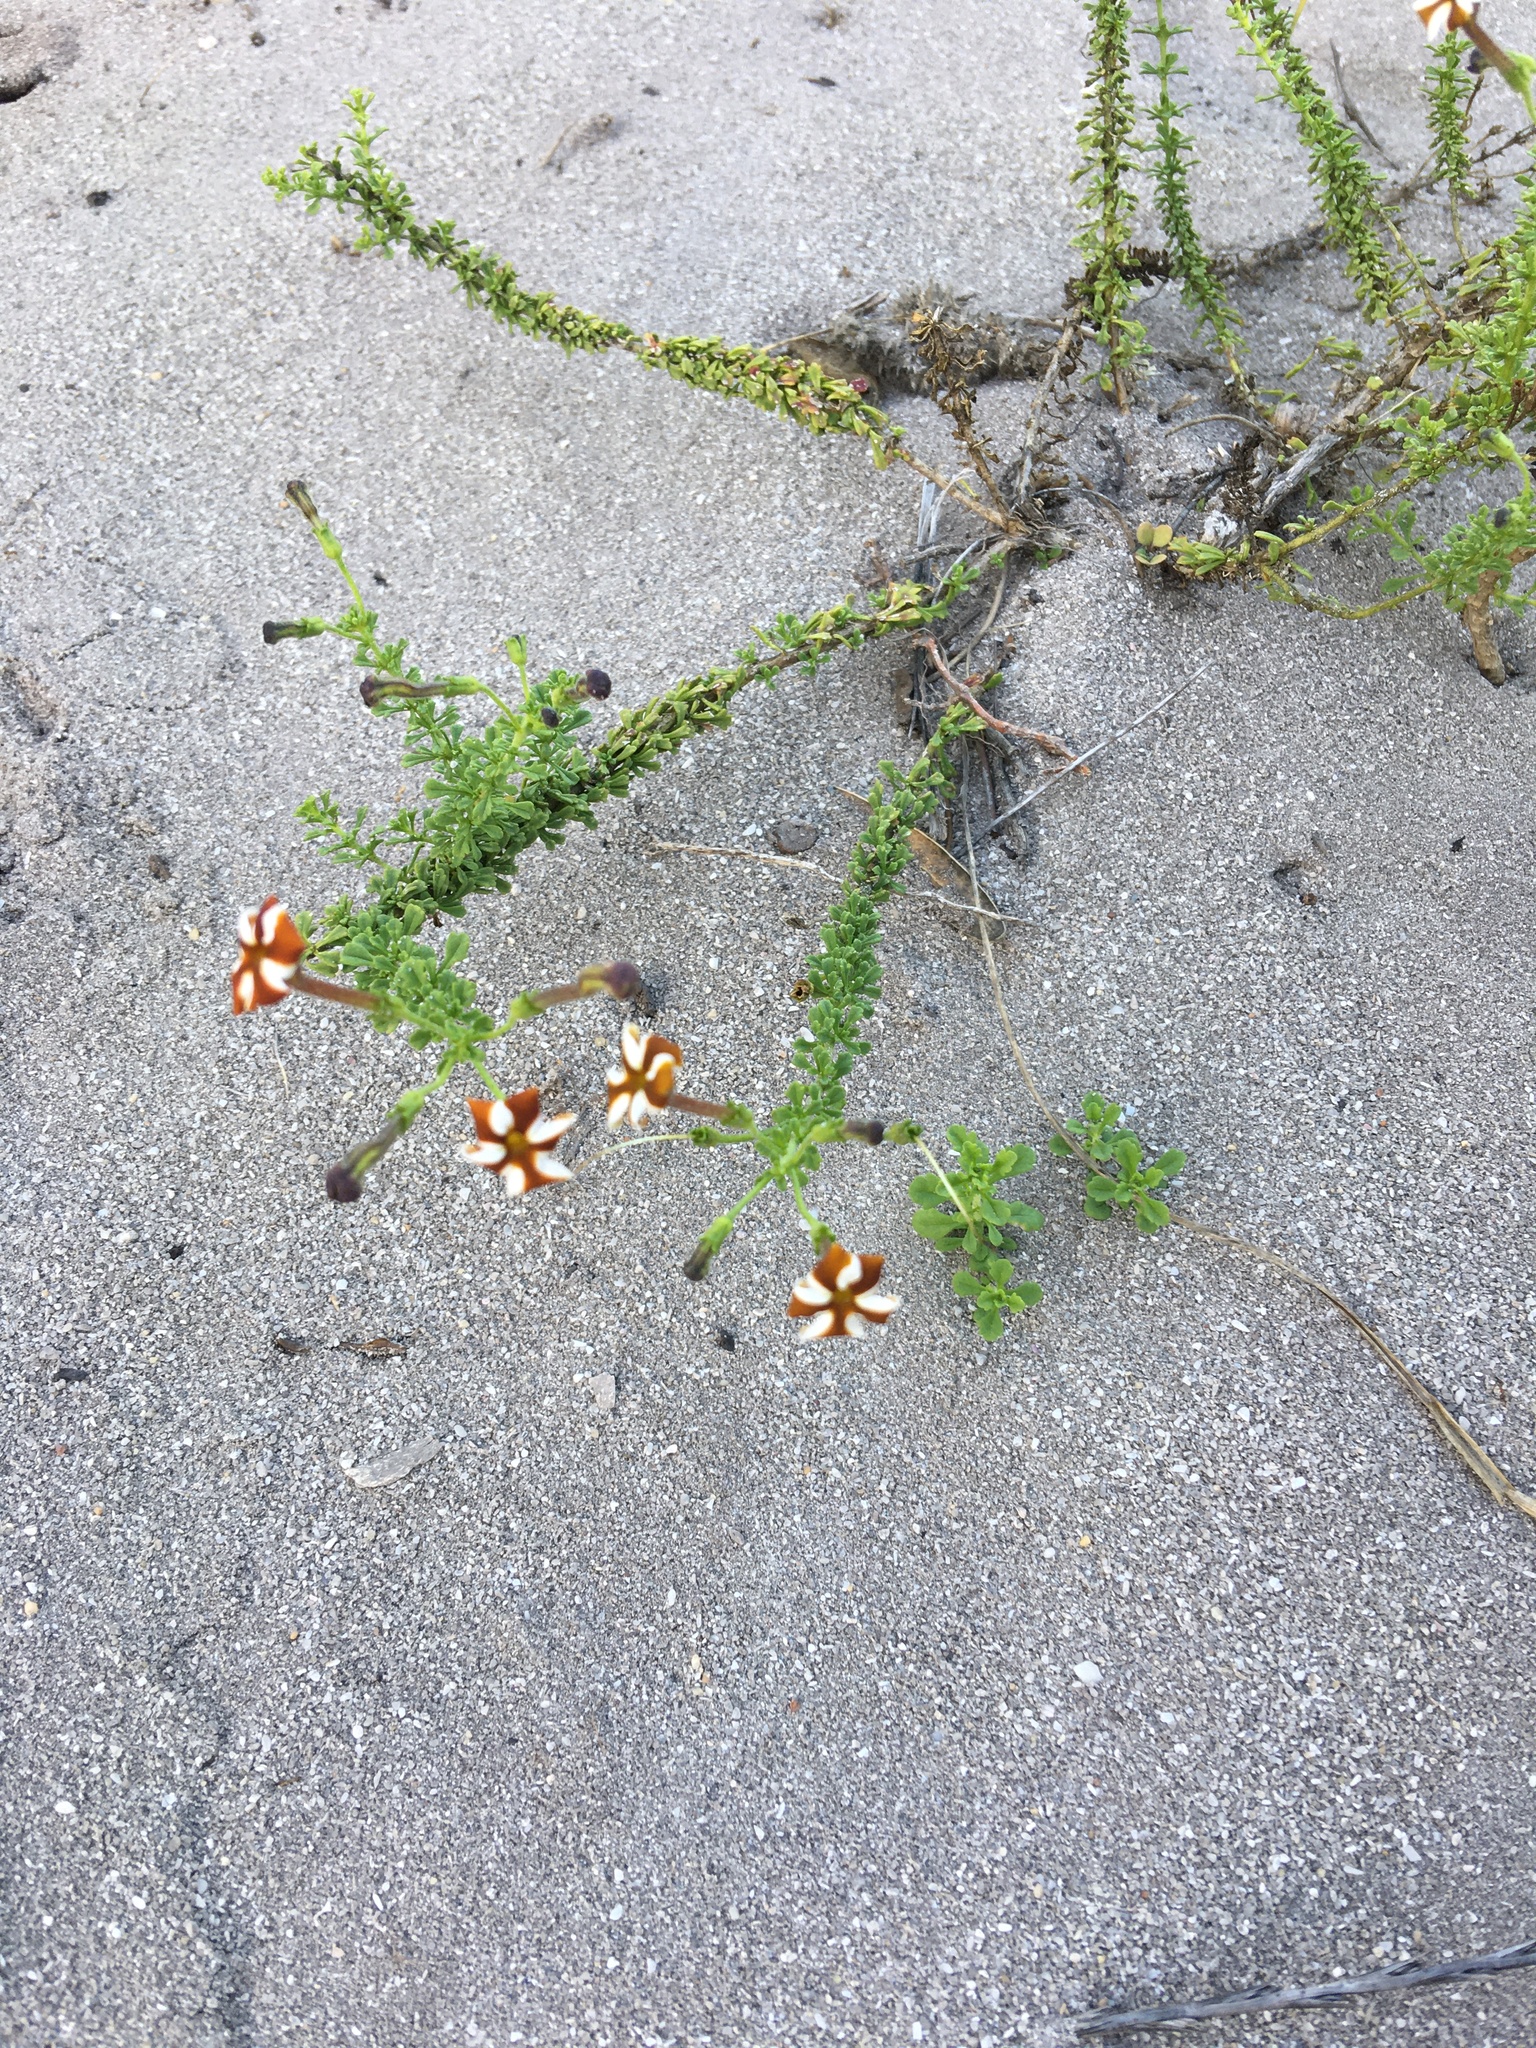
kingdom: Plantae
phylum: Tracheophyta
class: Magnoliopsida
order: Lamiales
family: Scrophulariaceae
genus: Jamesbrittenia
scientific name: Jamesbrittenia albomarginata
